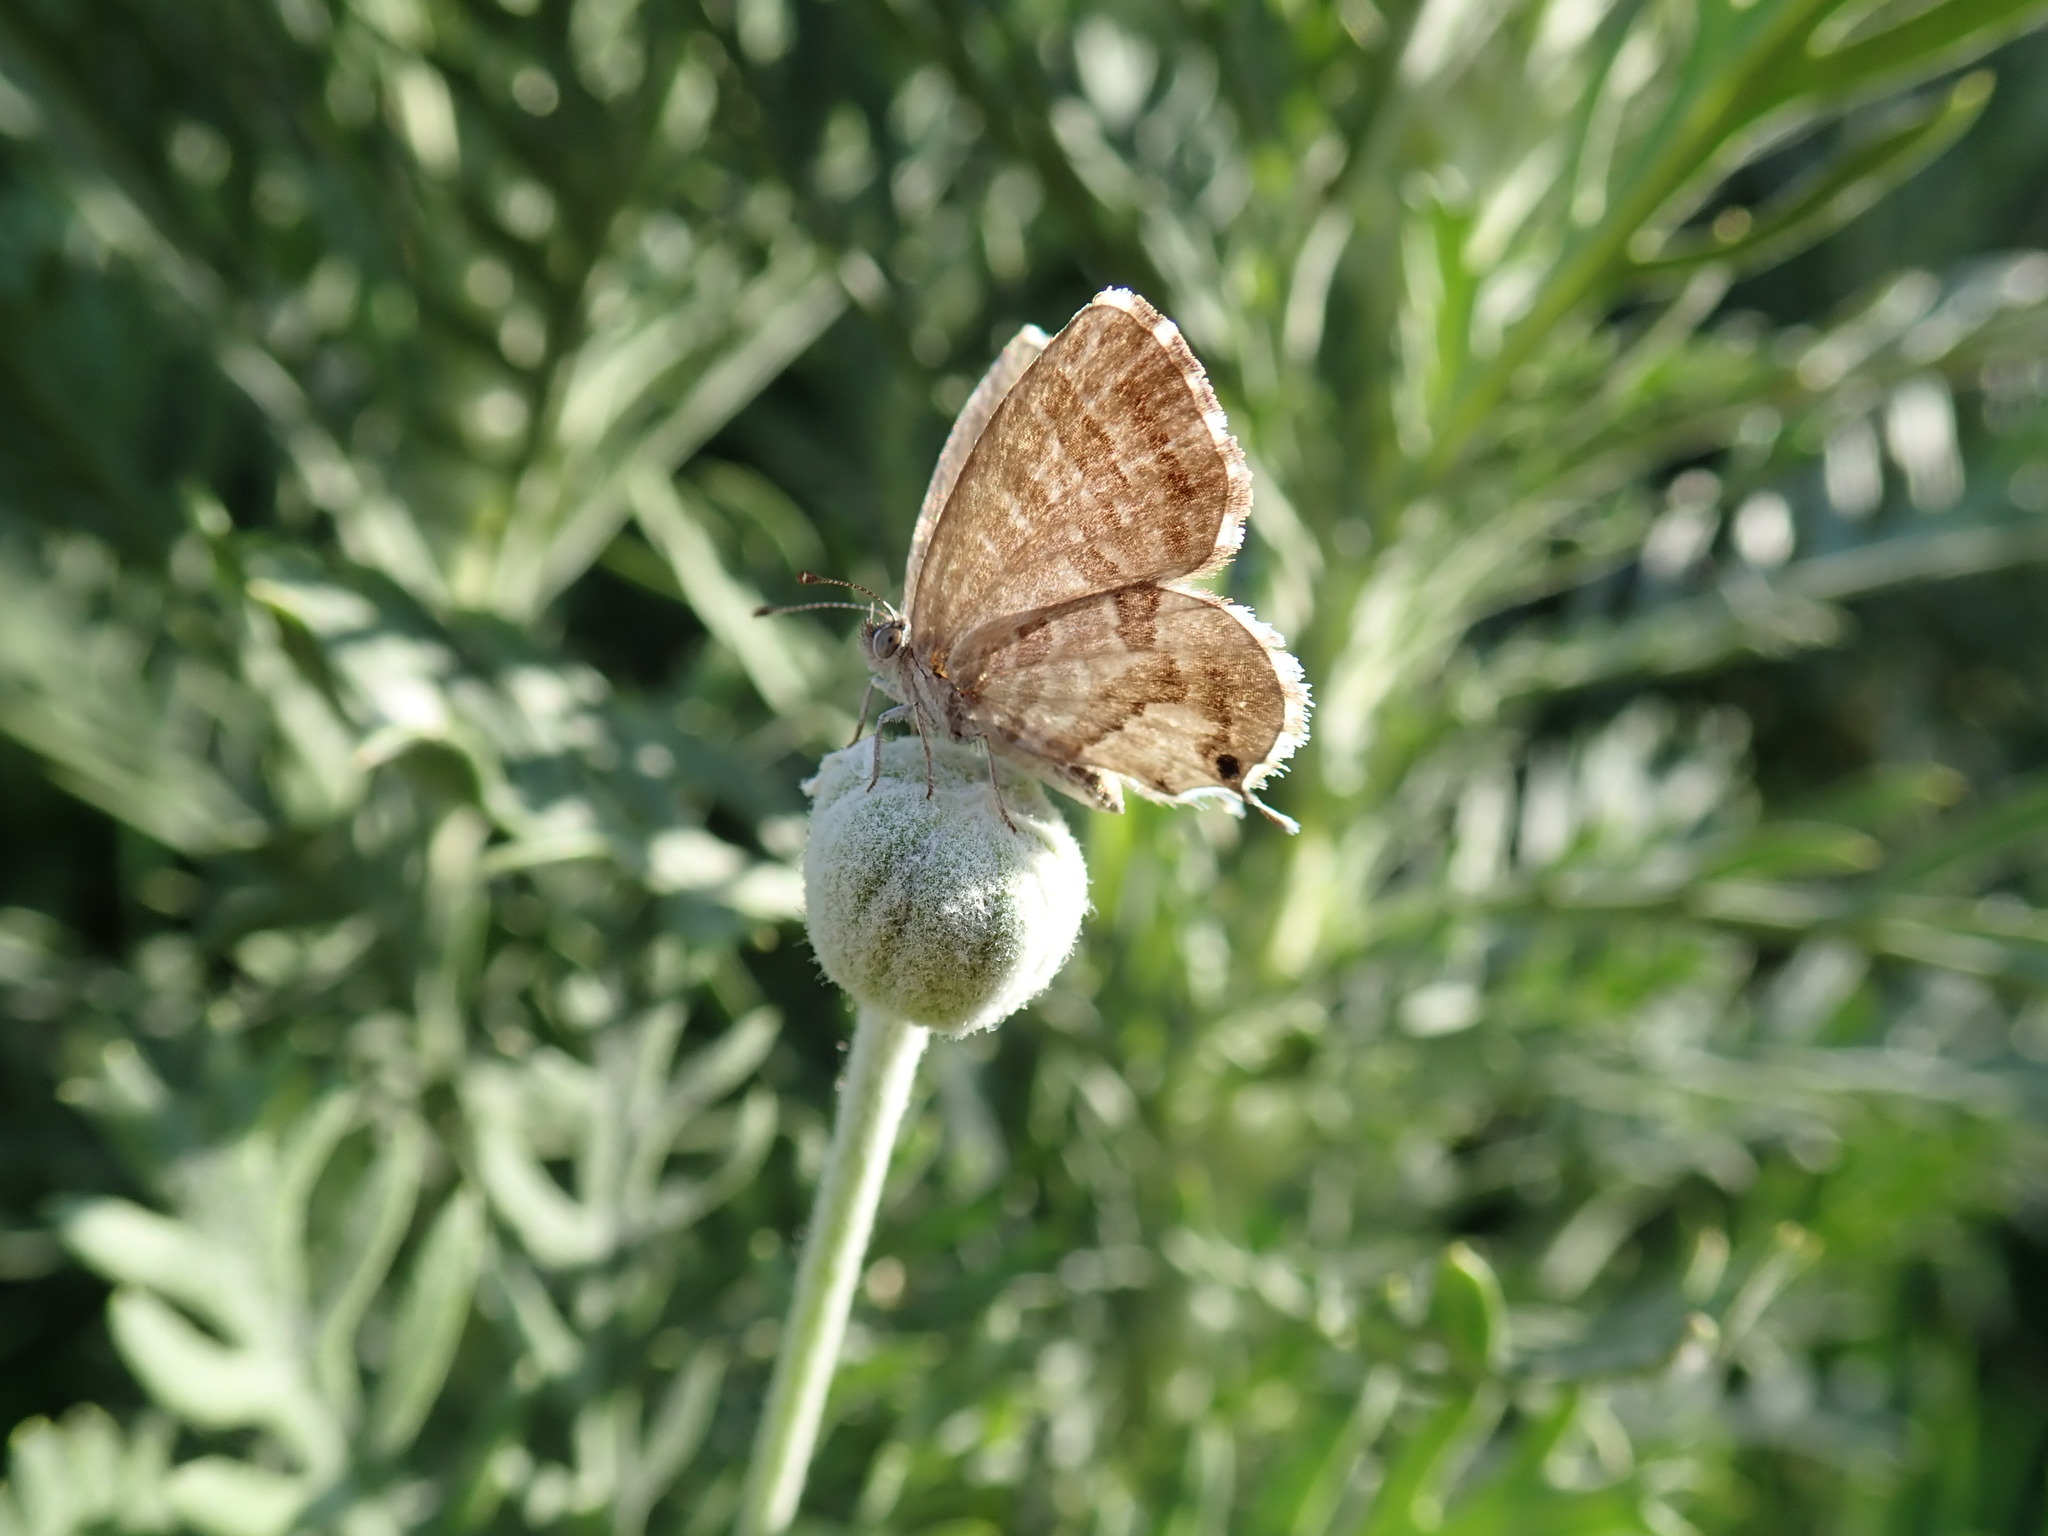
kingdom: Animalia
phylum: Arthropoda
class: Insecta
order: Lepidoptera
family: Lycaenidae
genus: Cacyreus
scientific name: Cacyreus marshalli
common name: Geranium bronze
